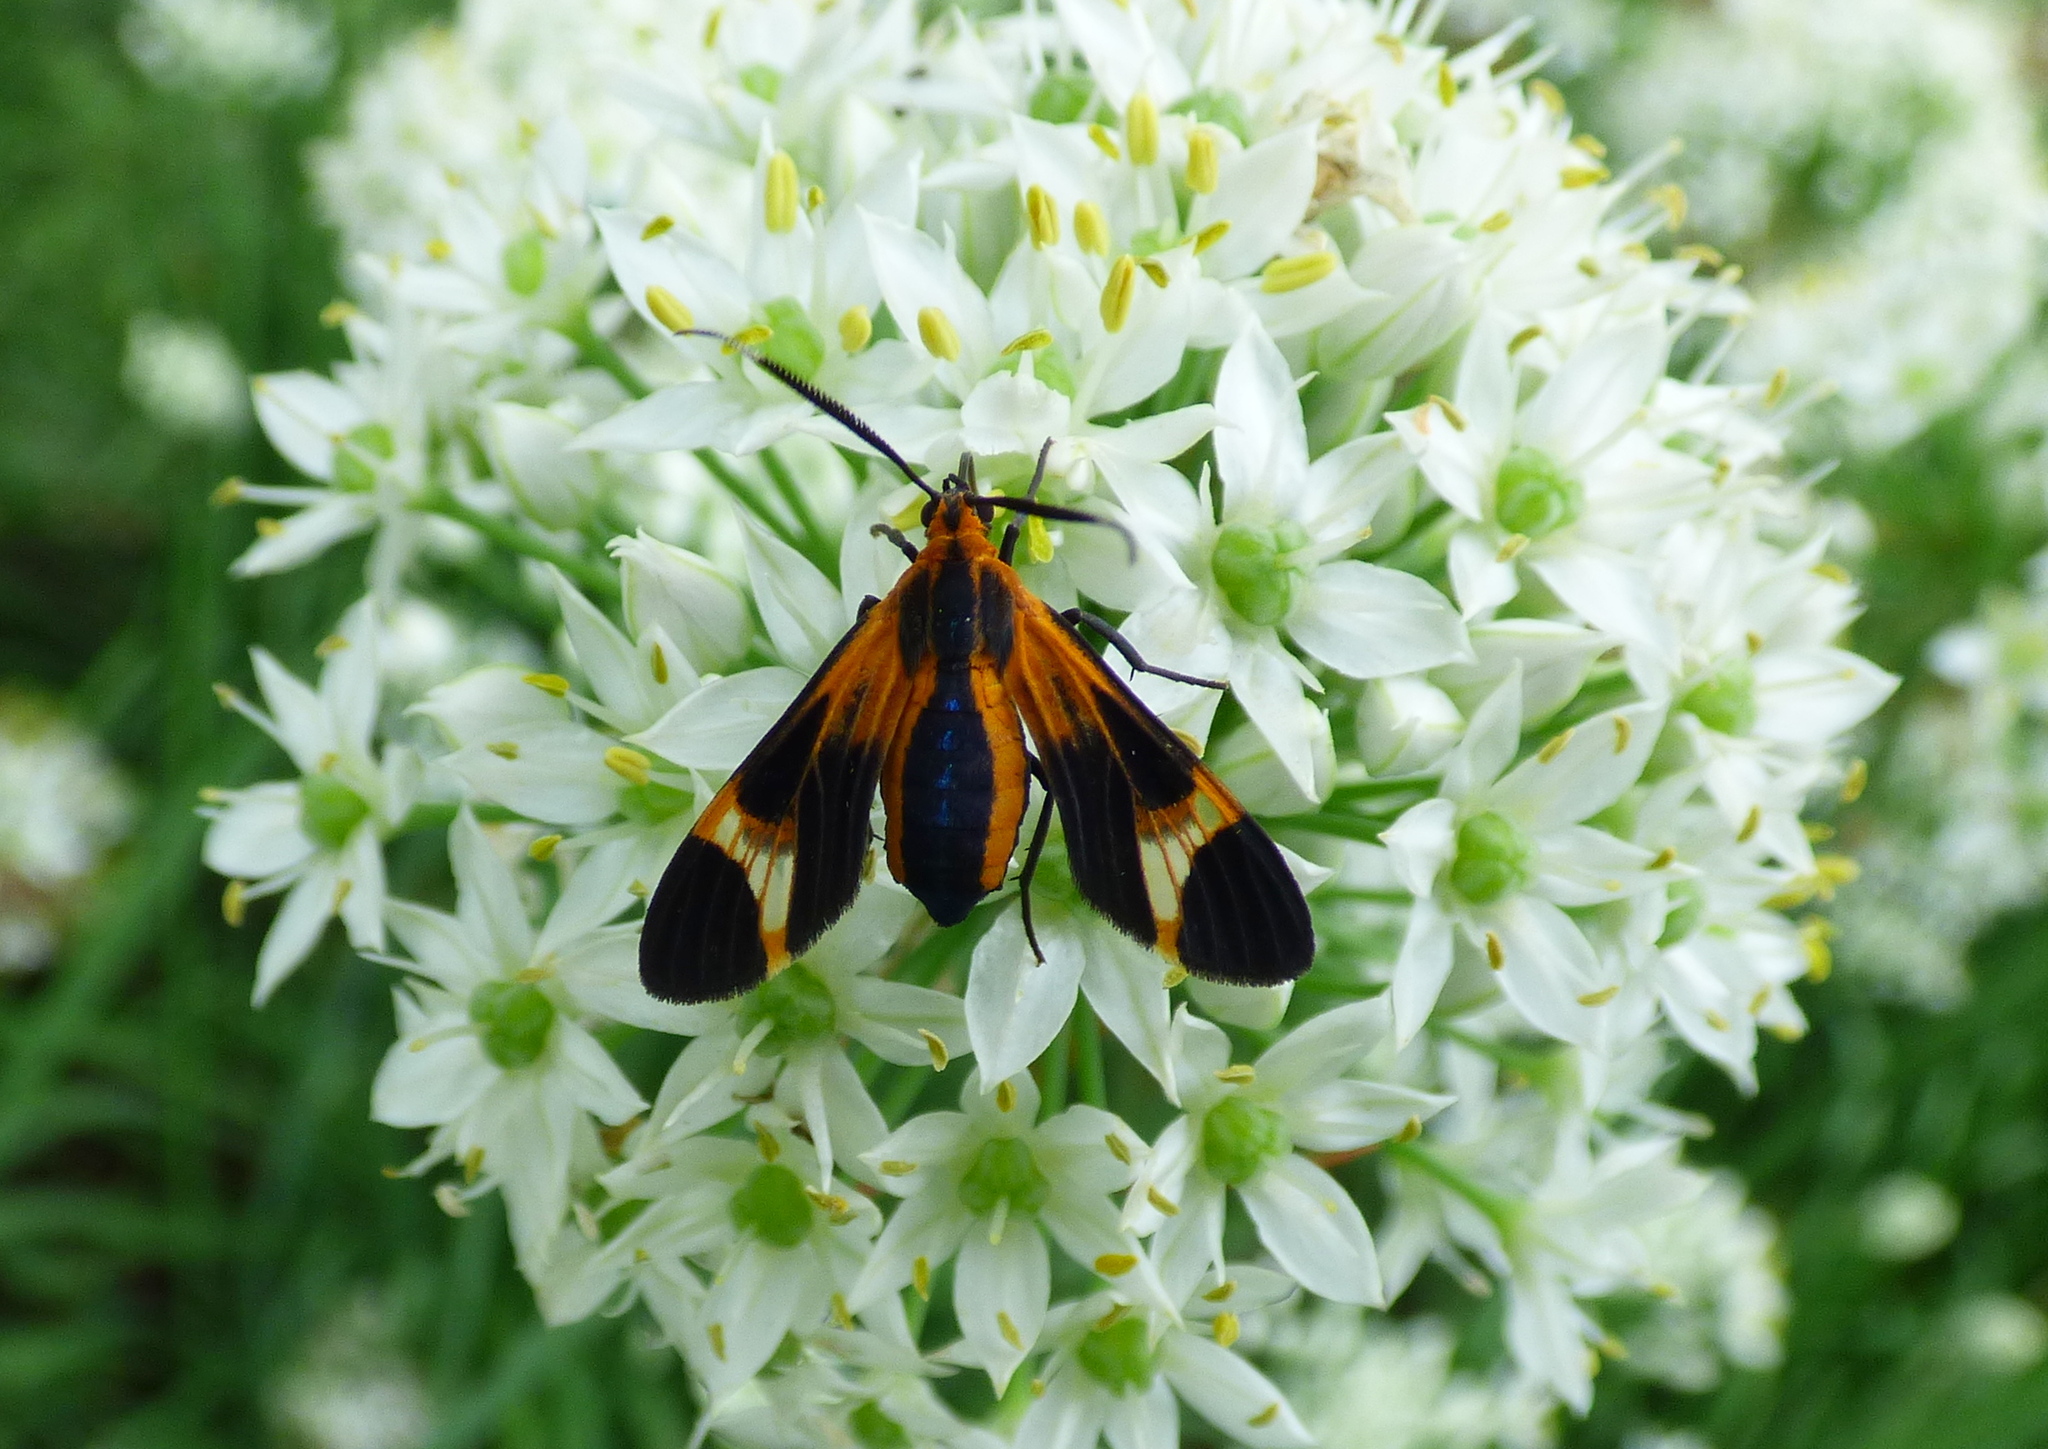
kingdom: Animalia
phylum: Arthropoda
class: Insecta
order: Lepidoptera
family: Erebidae
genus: Dycladia
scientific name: Dycladia lucetius
